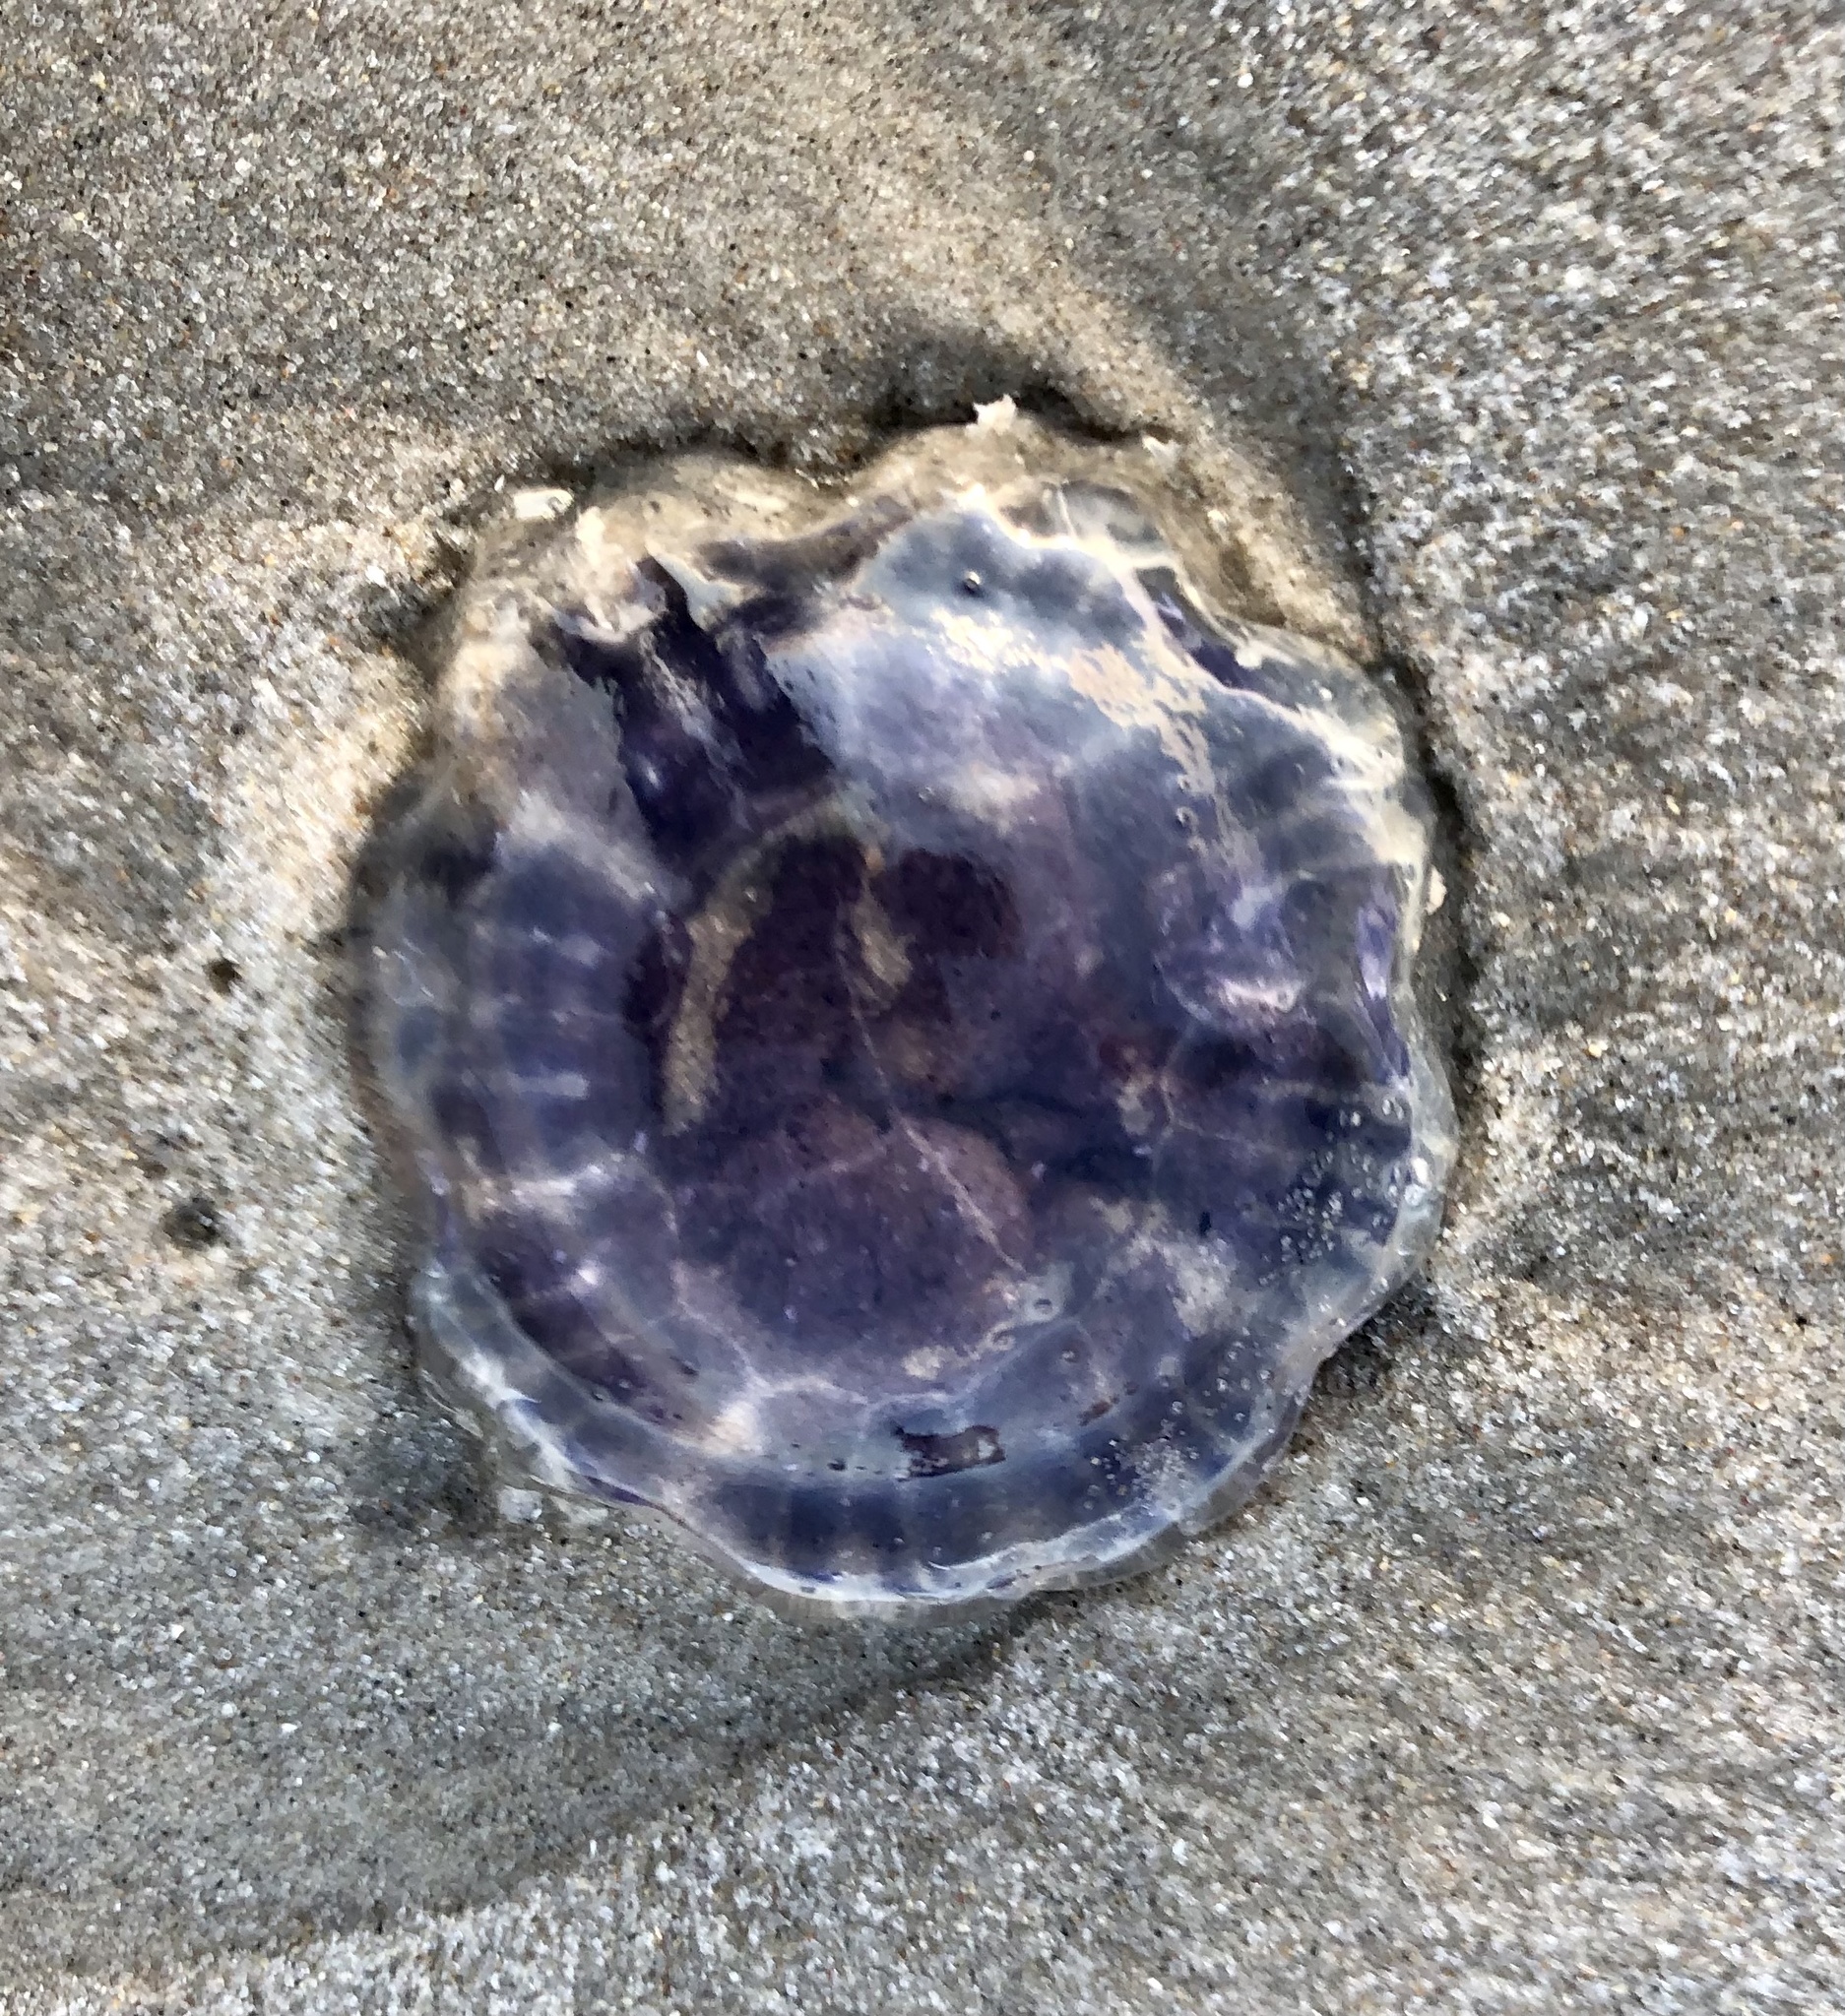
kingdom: Animalia
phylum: Cnidaria
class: Scyphozoa
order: Semaeostomeae
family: Cyaneidae
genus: Cyanea
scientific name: Cyanea lamarckii
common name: Blue jellyfish
